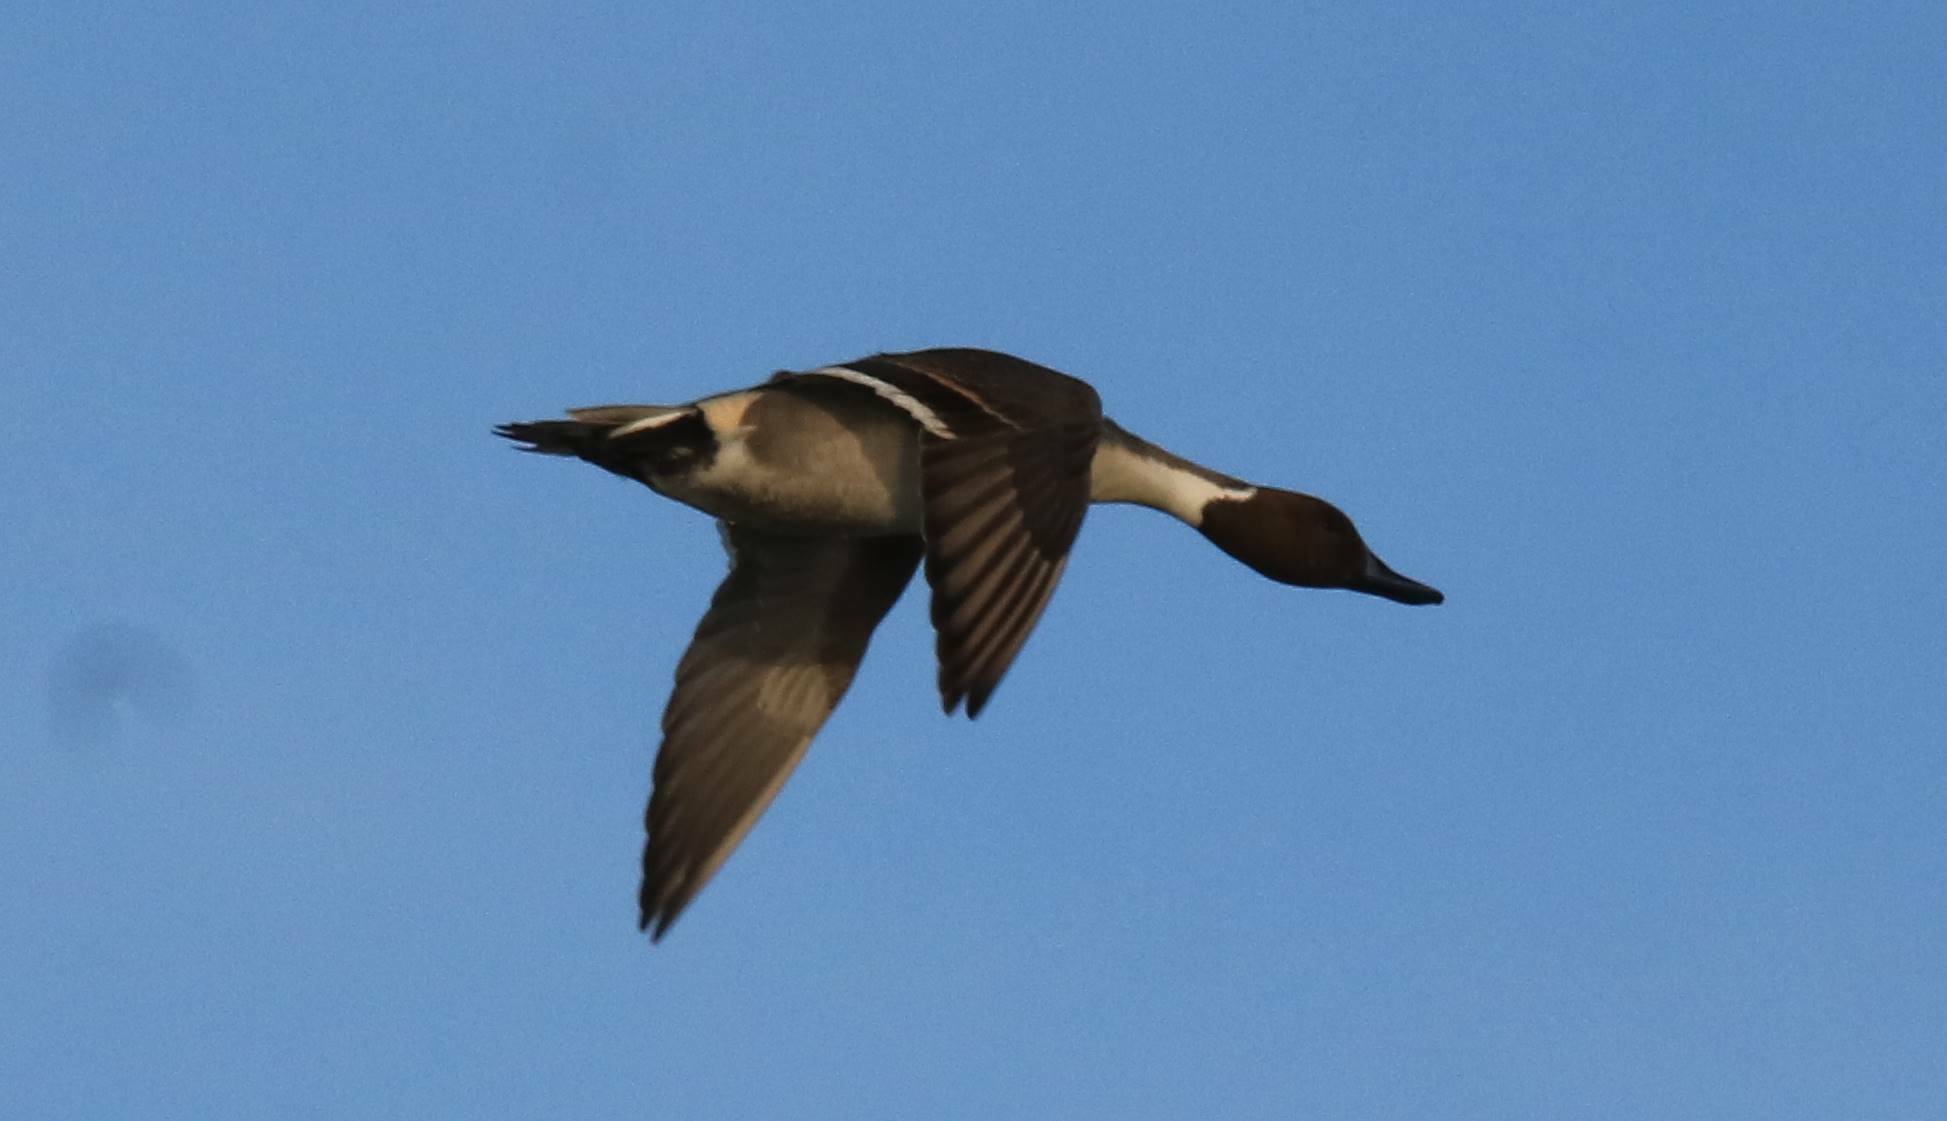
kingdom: Animalia
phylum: Chordata
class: Aves
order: Anseriformes
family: Anatidae
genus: Anas
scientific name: Anas acuta
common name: Northern pintail
